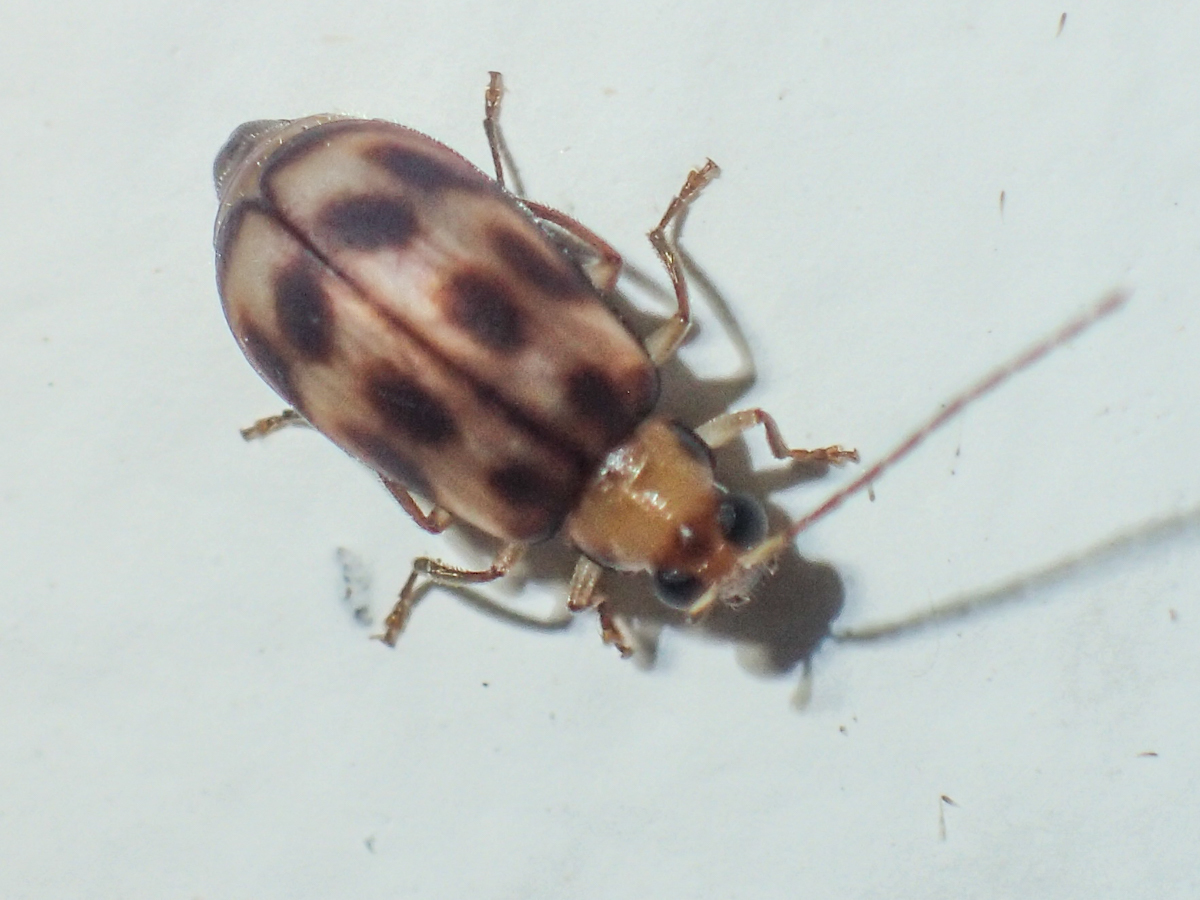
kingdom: Animalia
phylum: Arthropoda
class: Insecta
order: Coleoptera
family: Chrysomelidae
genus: Monolepta
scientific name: Monolepta
